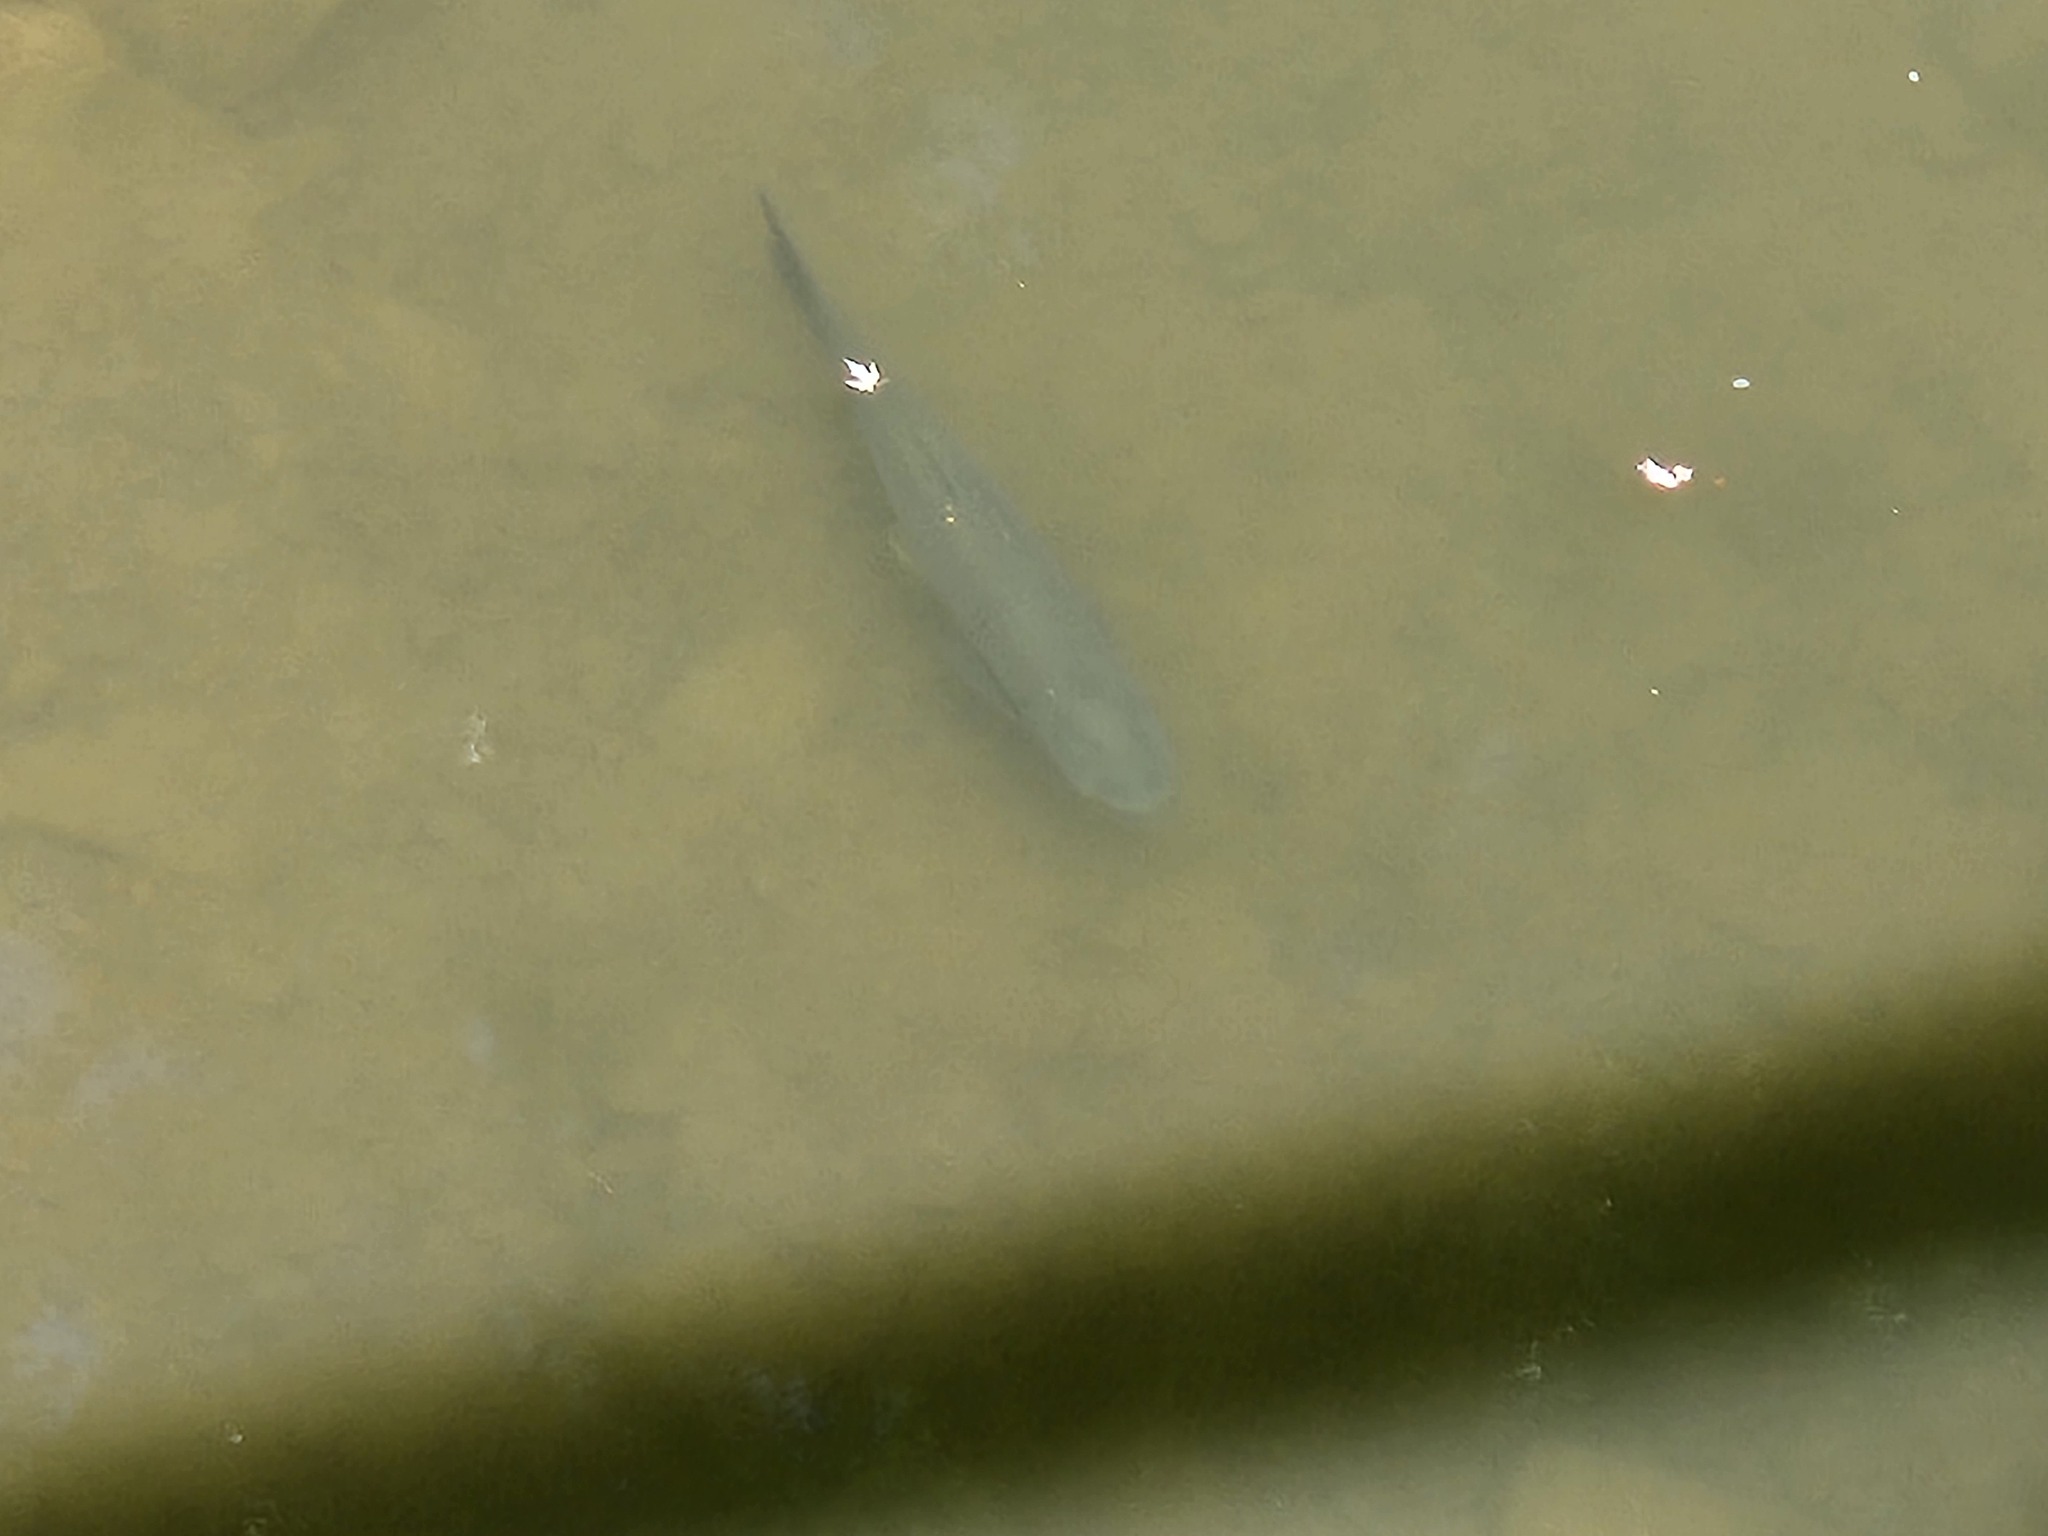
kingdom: Animalia
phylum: Chordata
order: Cypriniformes
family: Cyprinidae
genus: Ctenopharyngodon
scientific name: Ctenopharyngodon idella
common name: Grass carp
